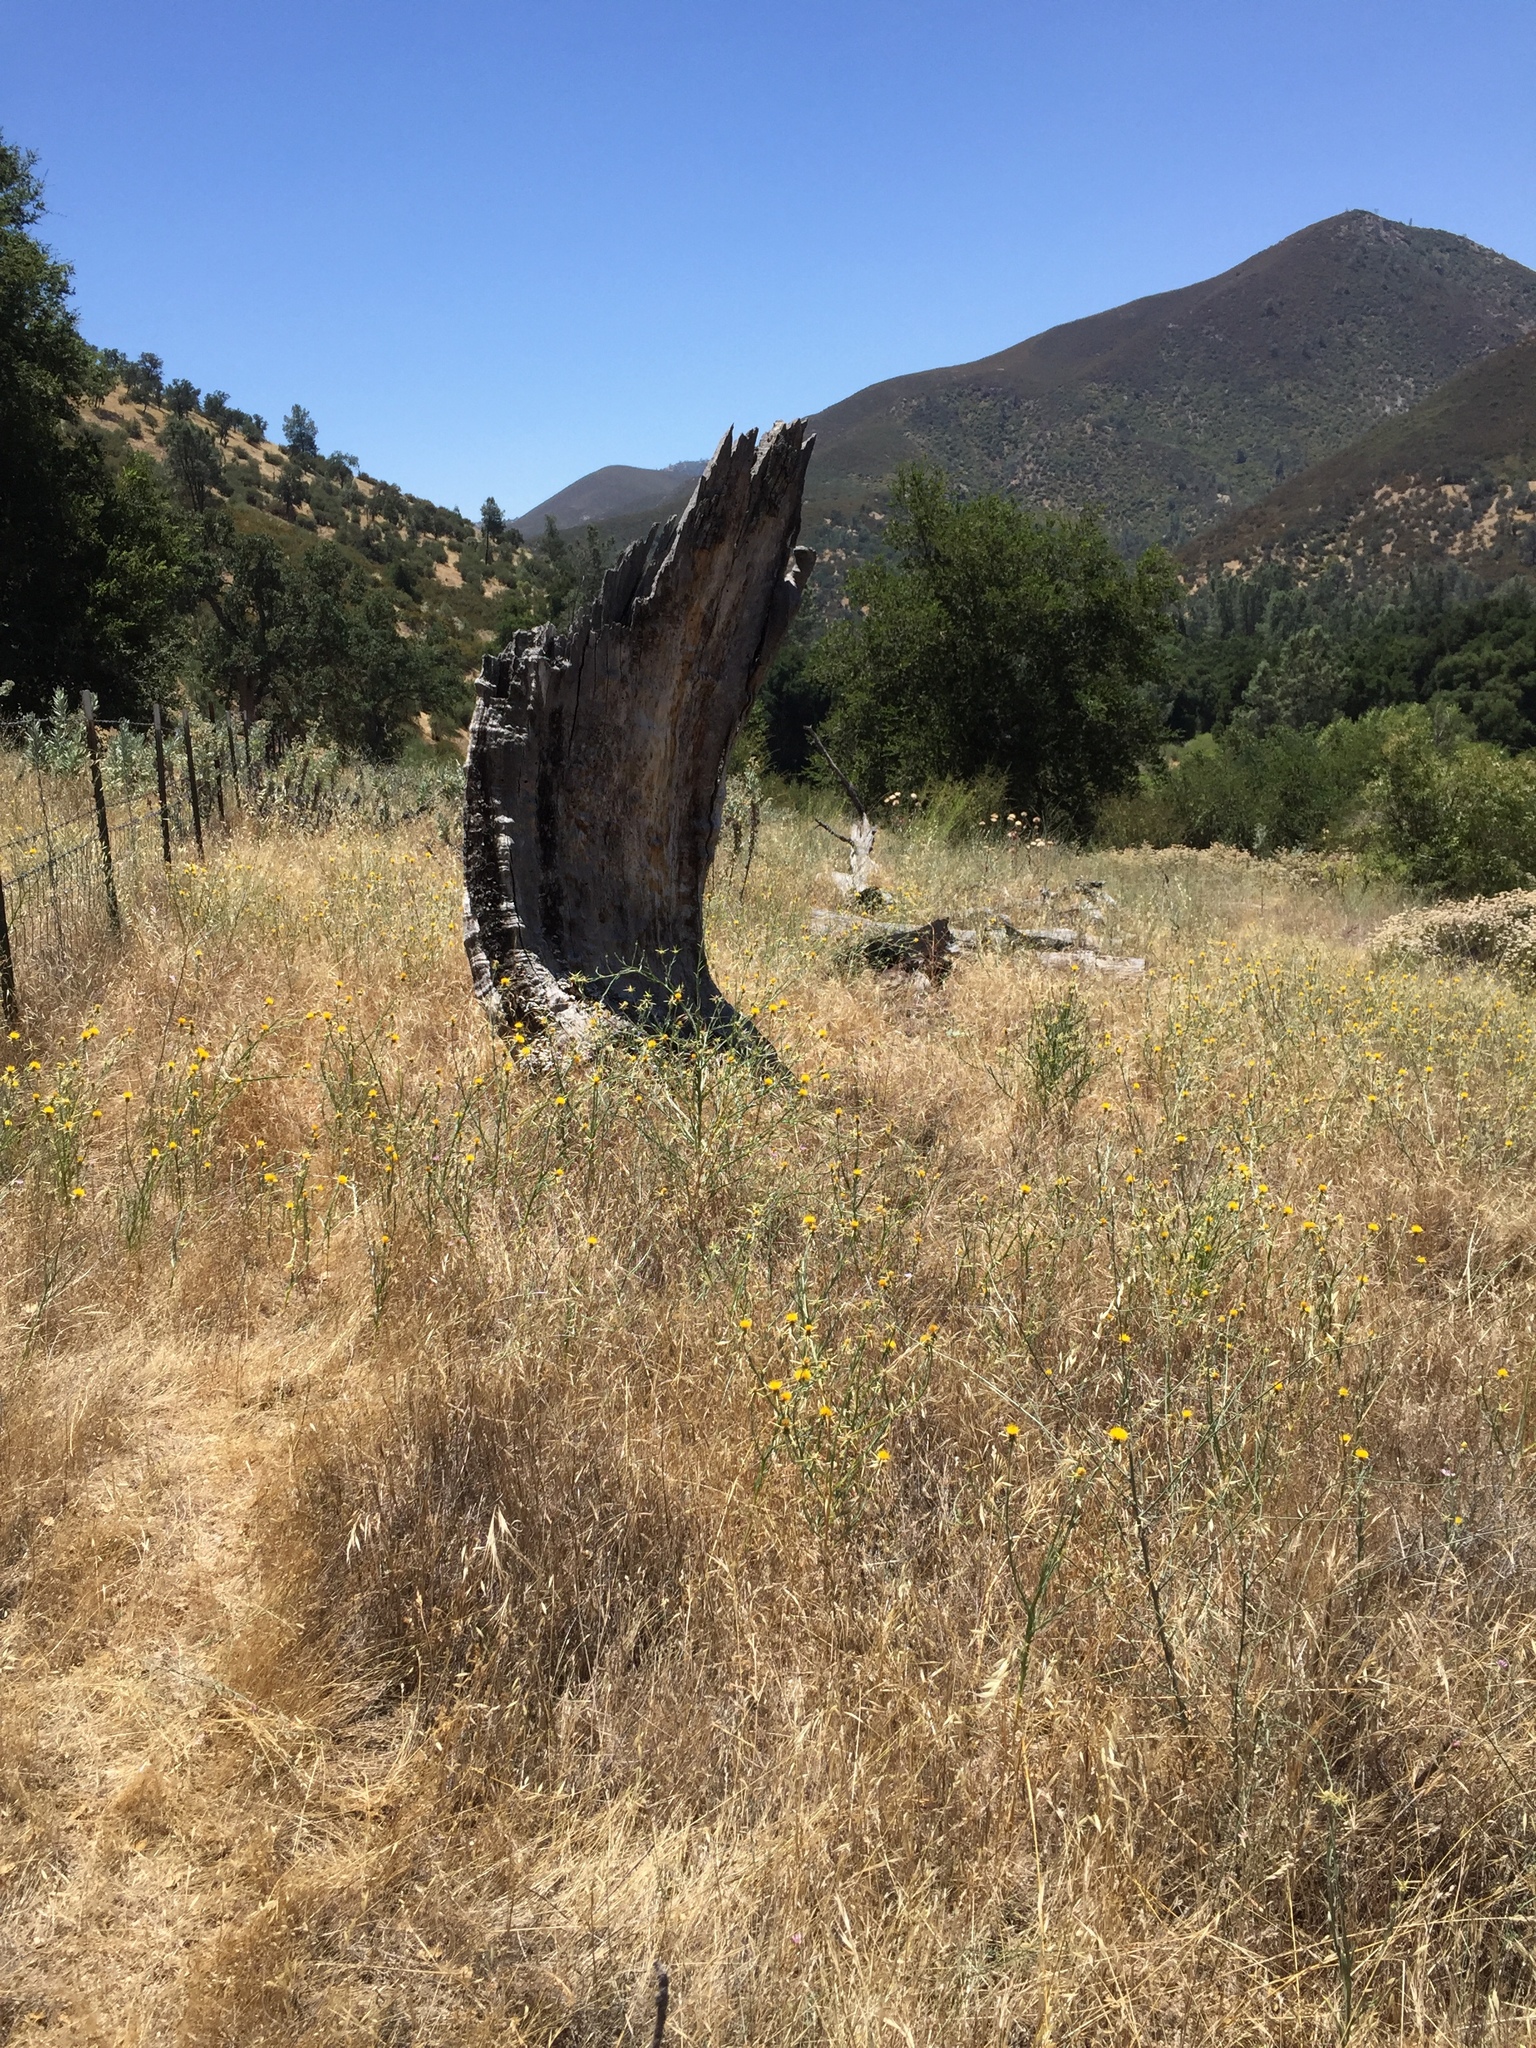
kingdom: Plantae
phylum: Tracheophyta
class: Magnoliopsida
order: Asterales
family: Asteraceae
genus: Centaurea
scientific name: Centaurea solstitialis
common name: Yellow star-thistle
